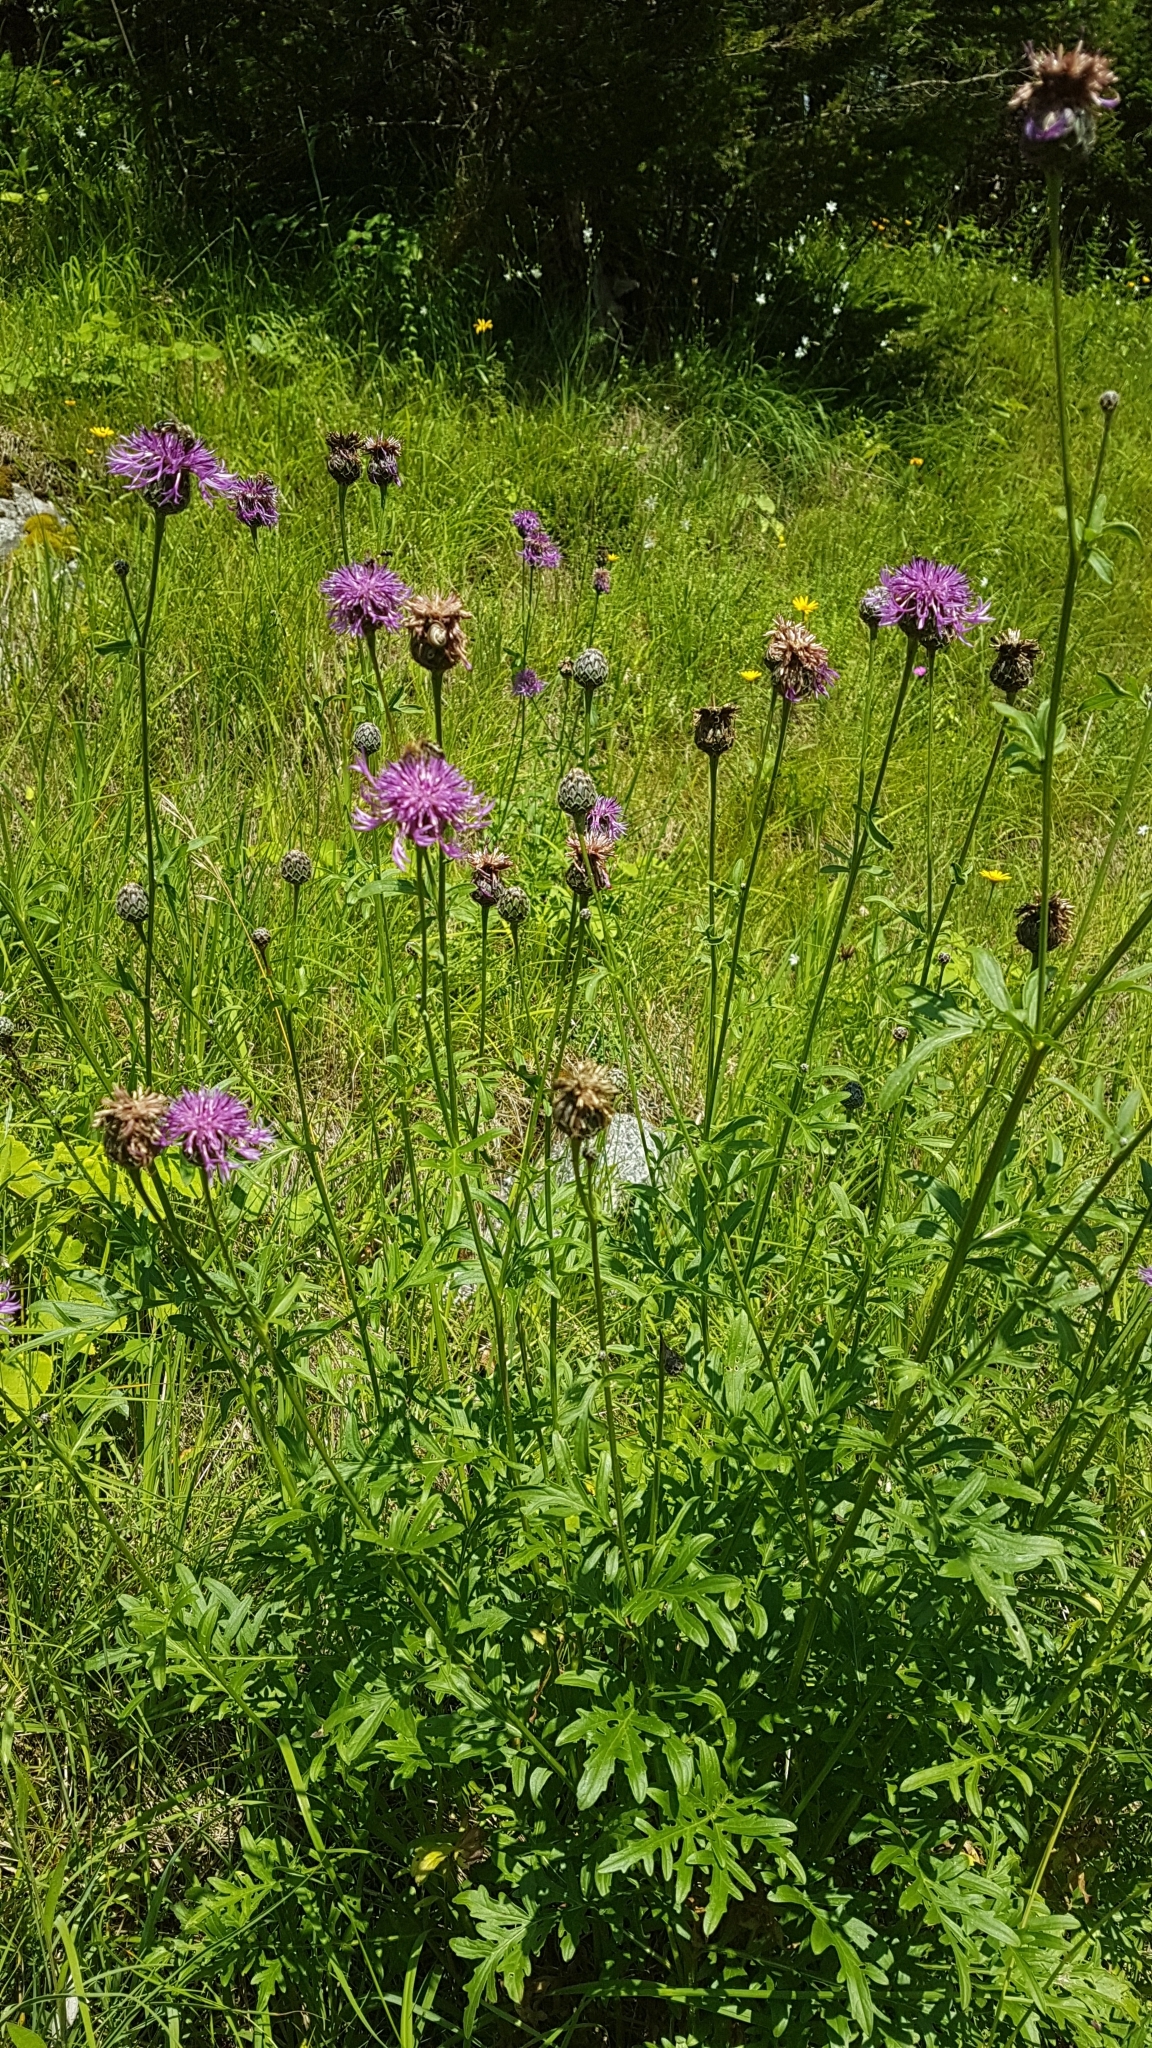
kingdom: Plantae
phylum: Tracheophyta
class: Magnoliopsida
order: Asterales
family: Asteraceae
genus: Centaurea
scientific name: Centaurea scabiosa
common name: Greater knapweed
